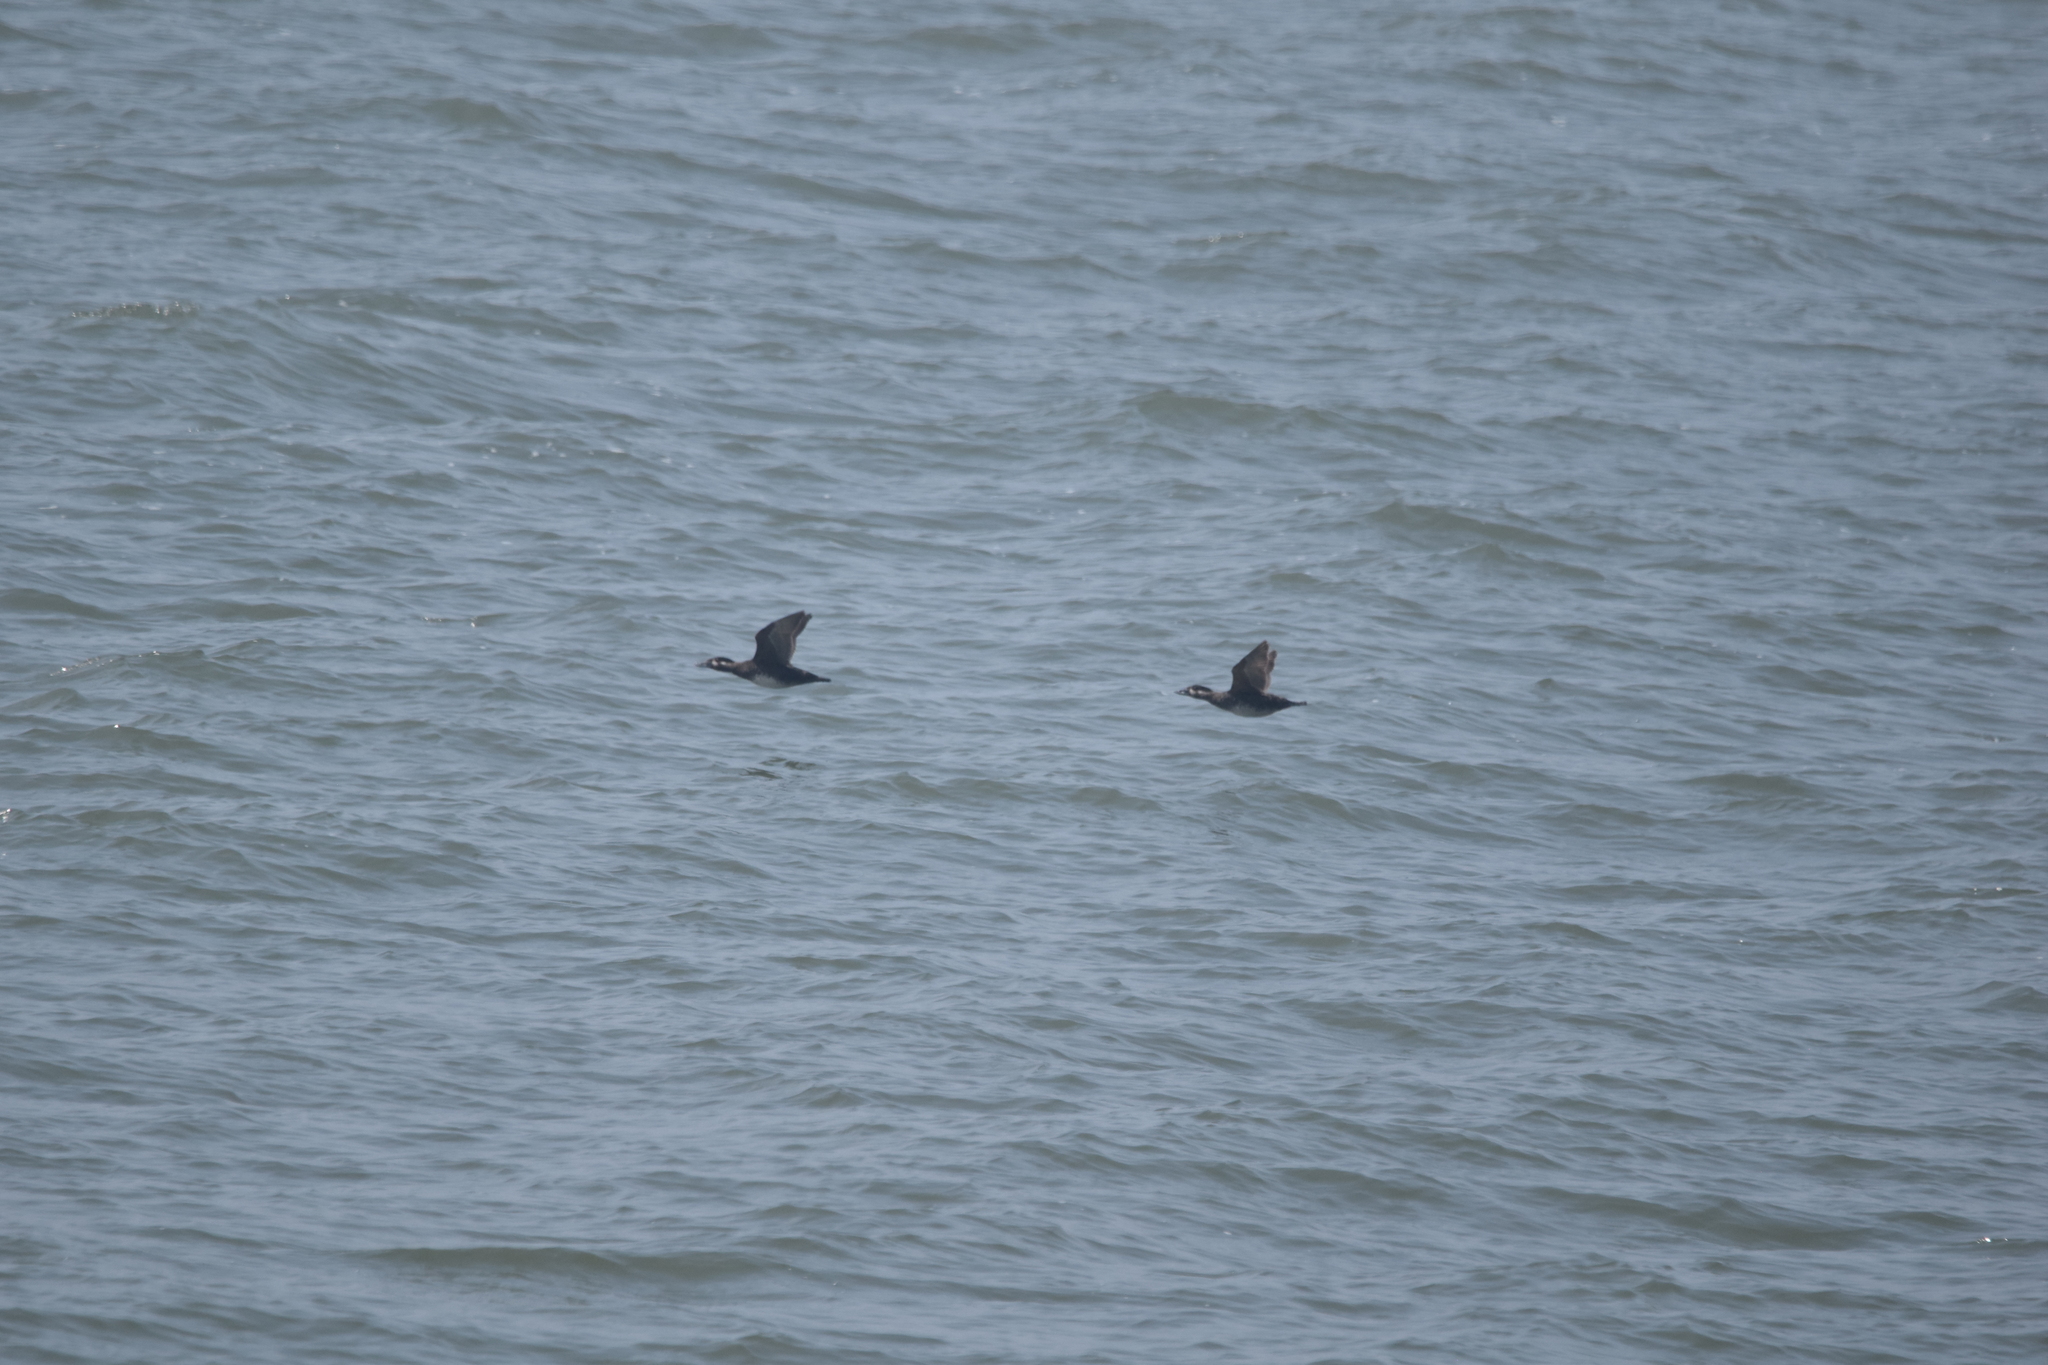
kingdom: Animalia
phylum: Chordata
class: Aves
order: Anseriformes
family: Anatidae
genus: Melanitta
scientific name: Melanitta perspicillata
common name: Surf scoter
